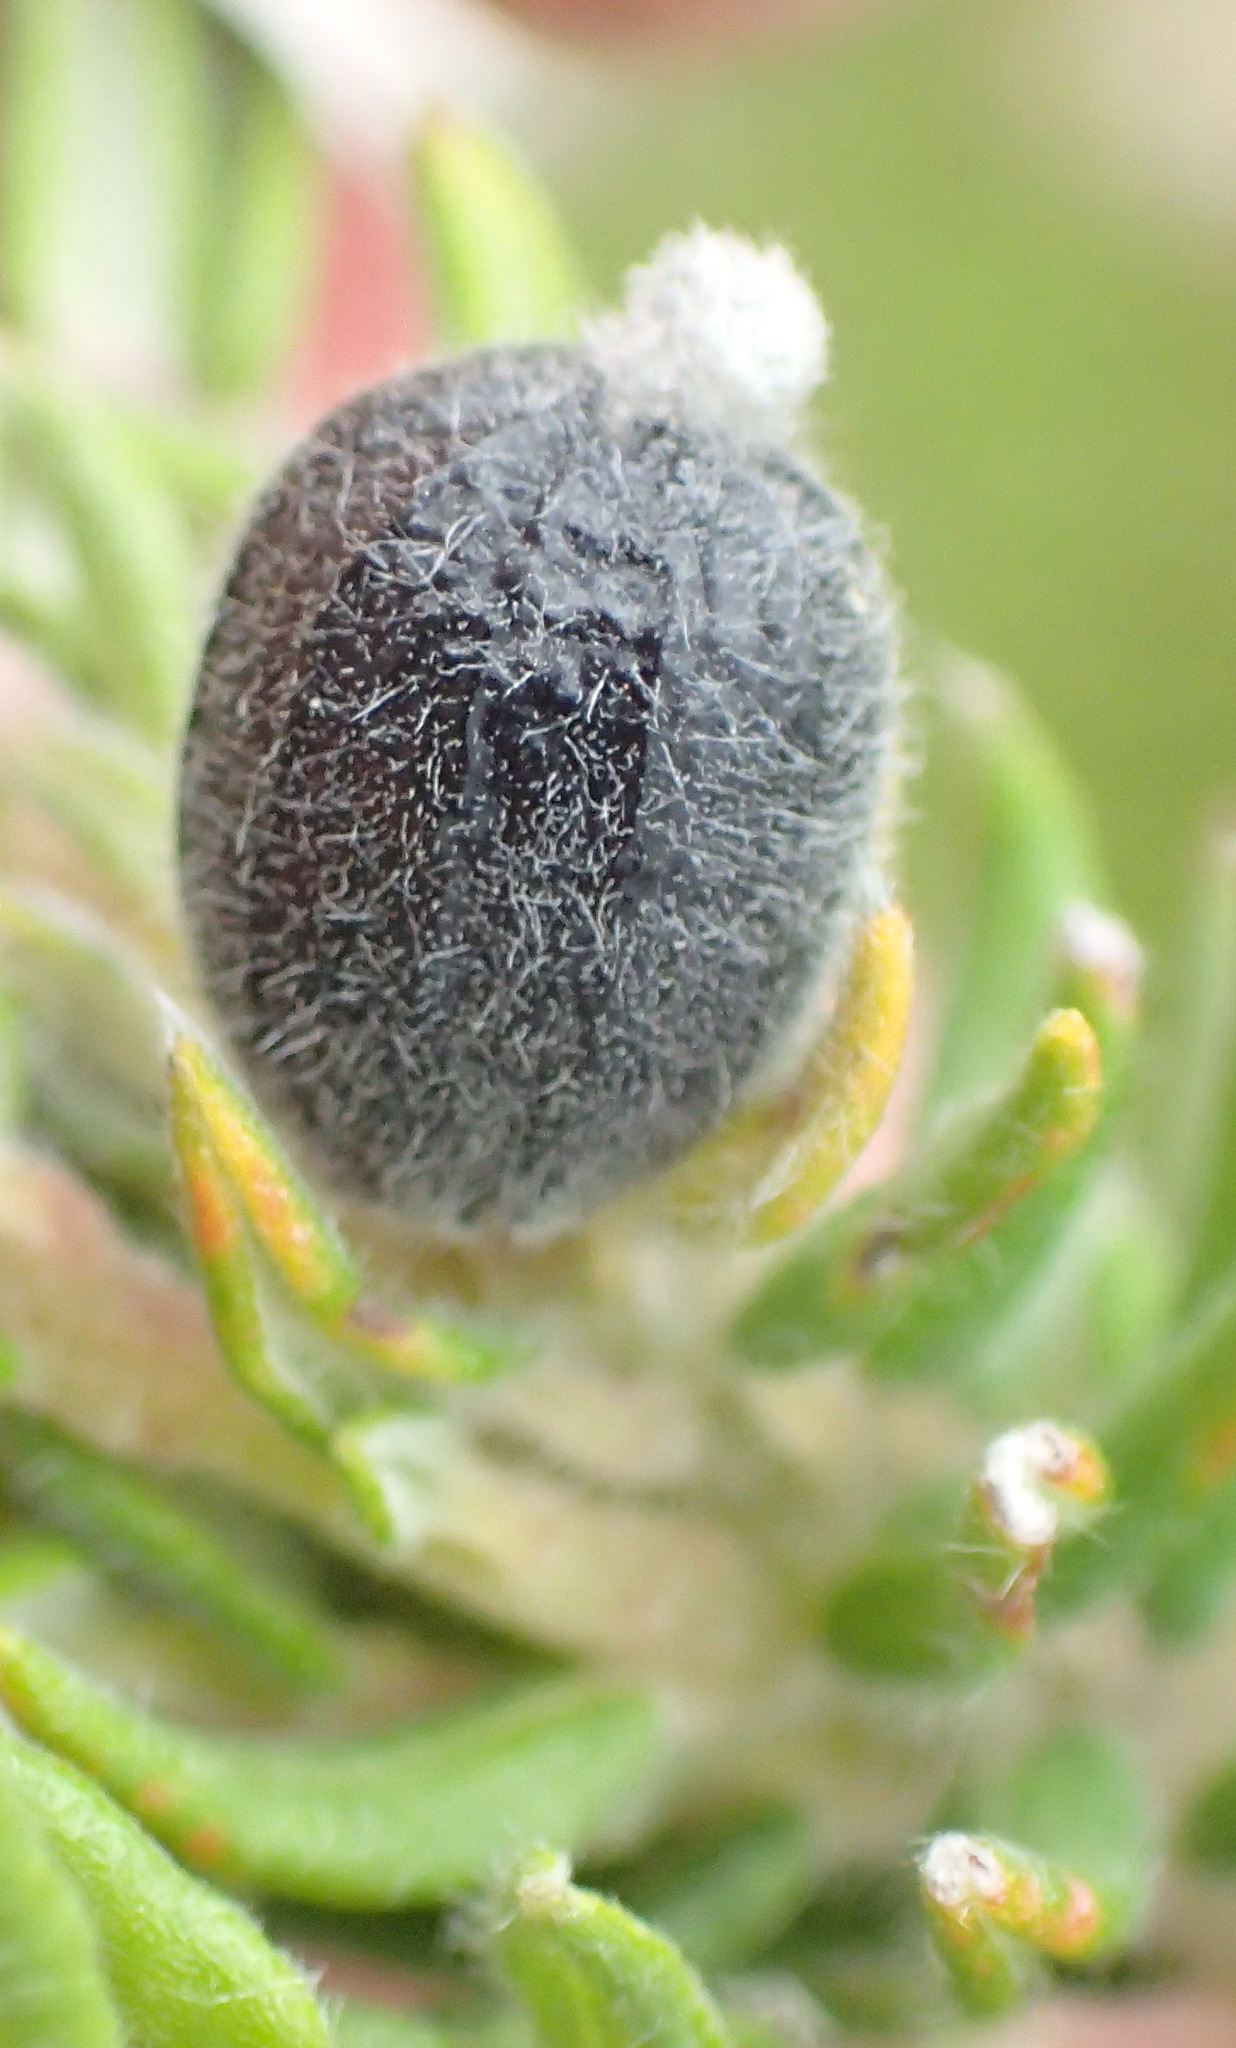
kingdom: Plantae
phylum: Tracheophyta
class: Magnoliopsida
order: Rosales
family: Rhamnaceae
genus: Phylica
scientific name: Phylica purpurea
